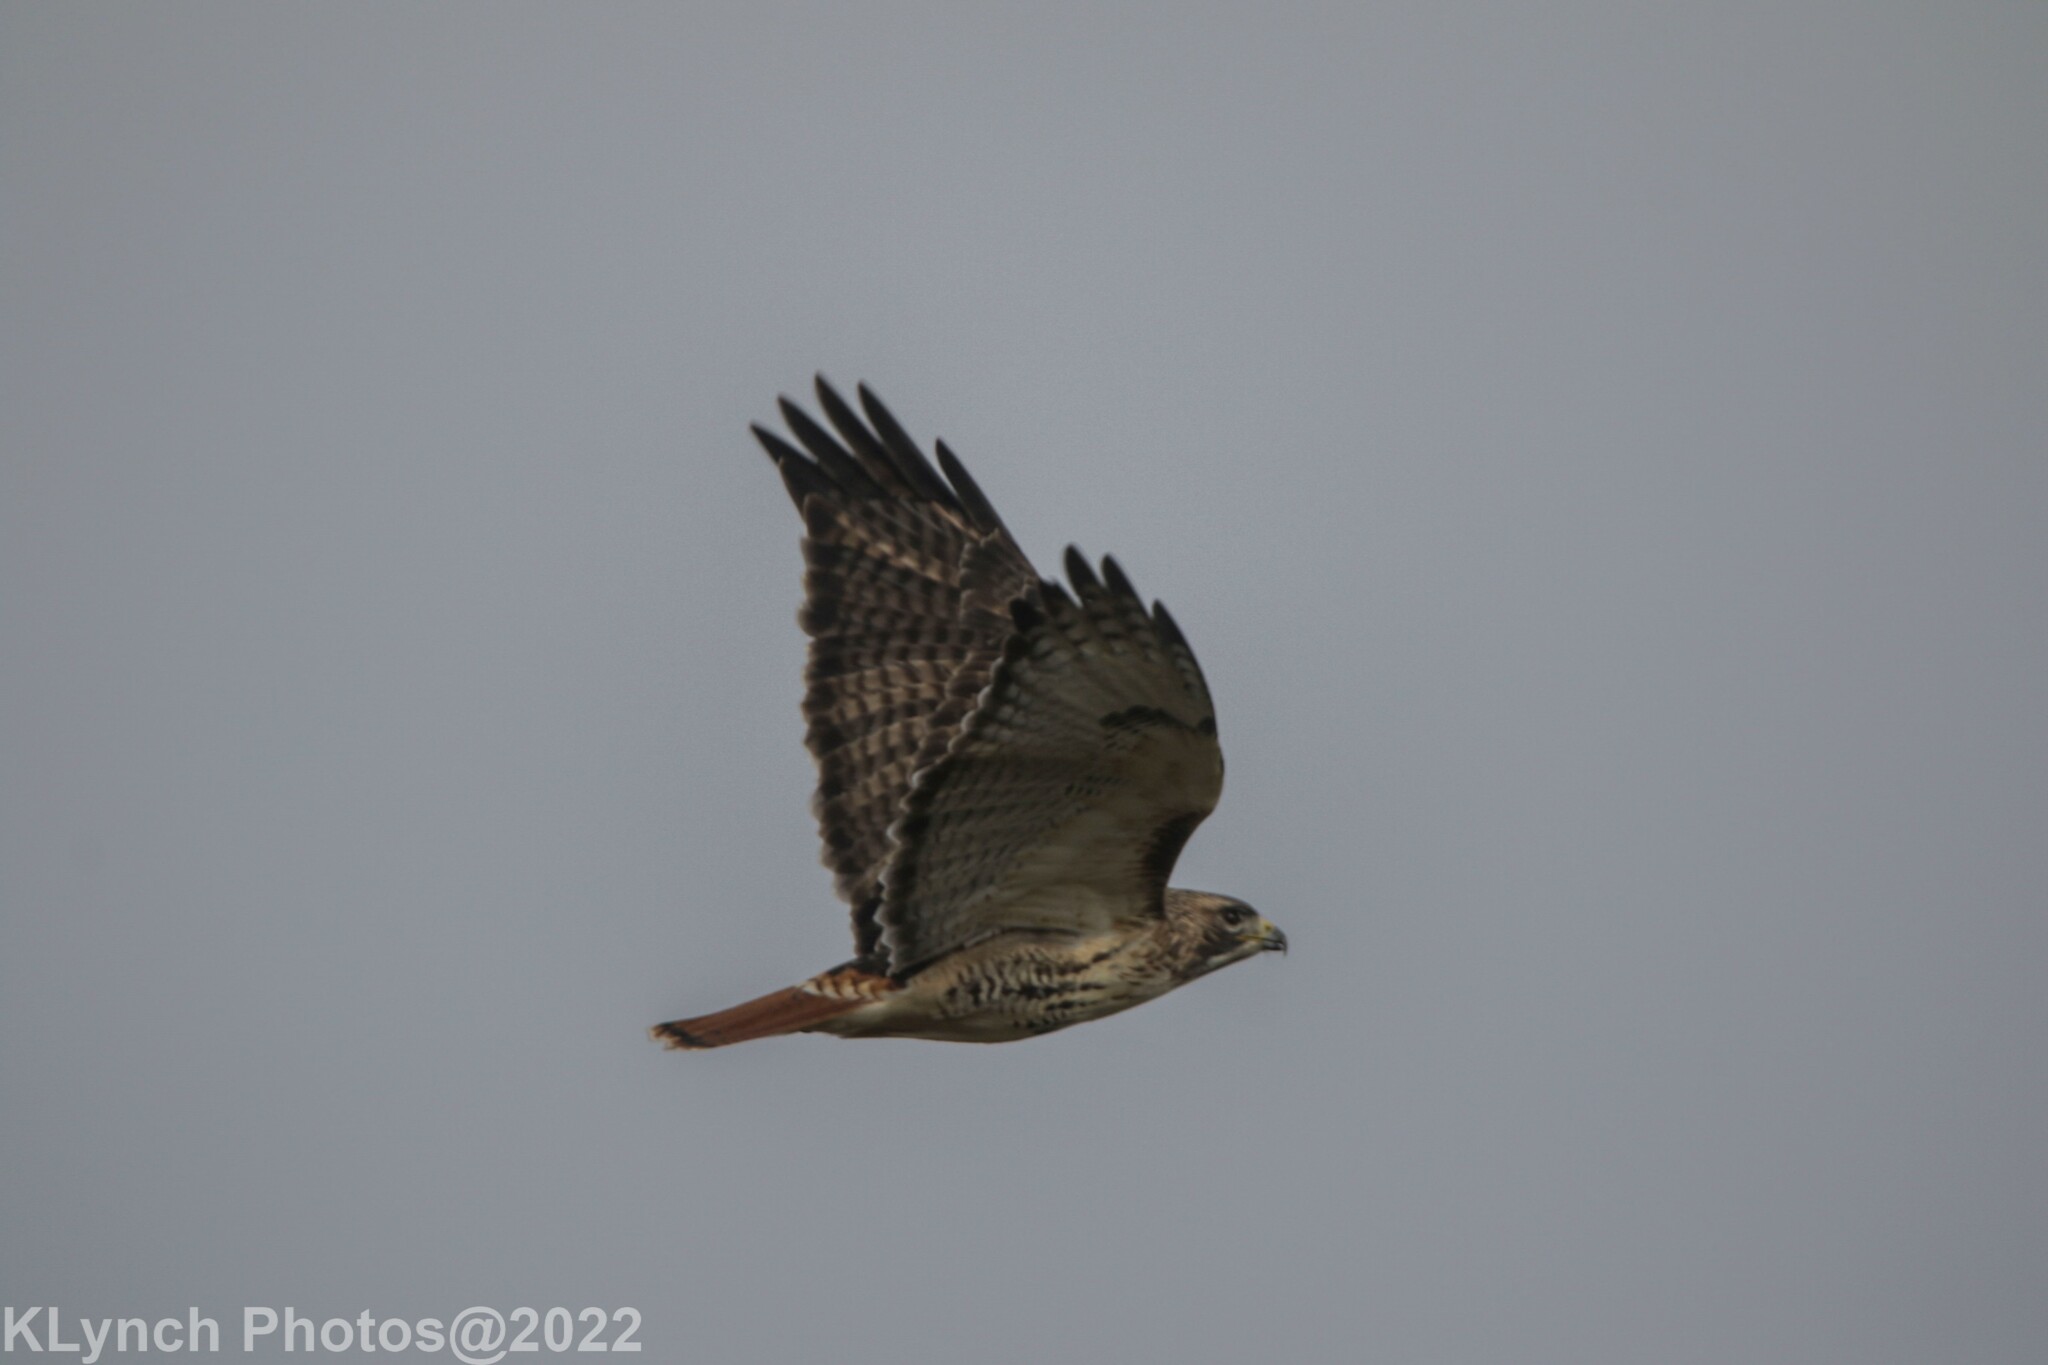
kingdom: Animalia
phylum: Chordata
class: Aves
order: Accipitriformes
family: Accipitridae
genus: Buteo
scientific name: Buteo jamaicensis
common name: Red-tailed hawk
